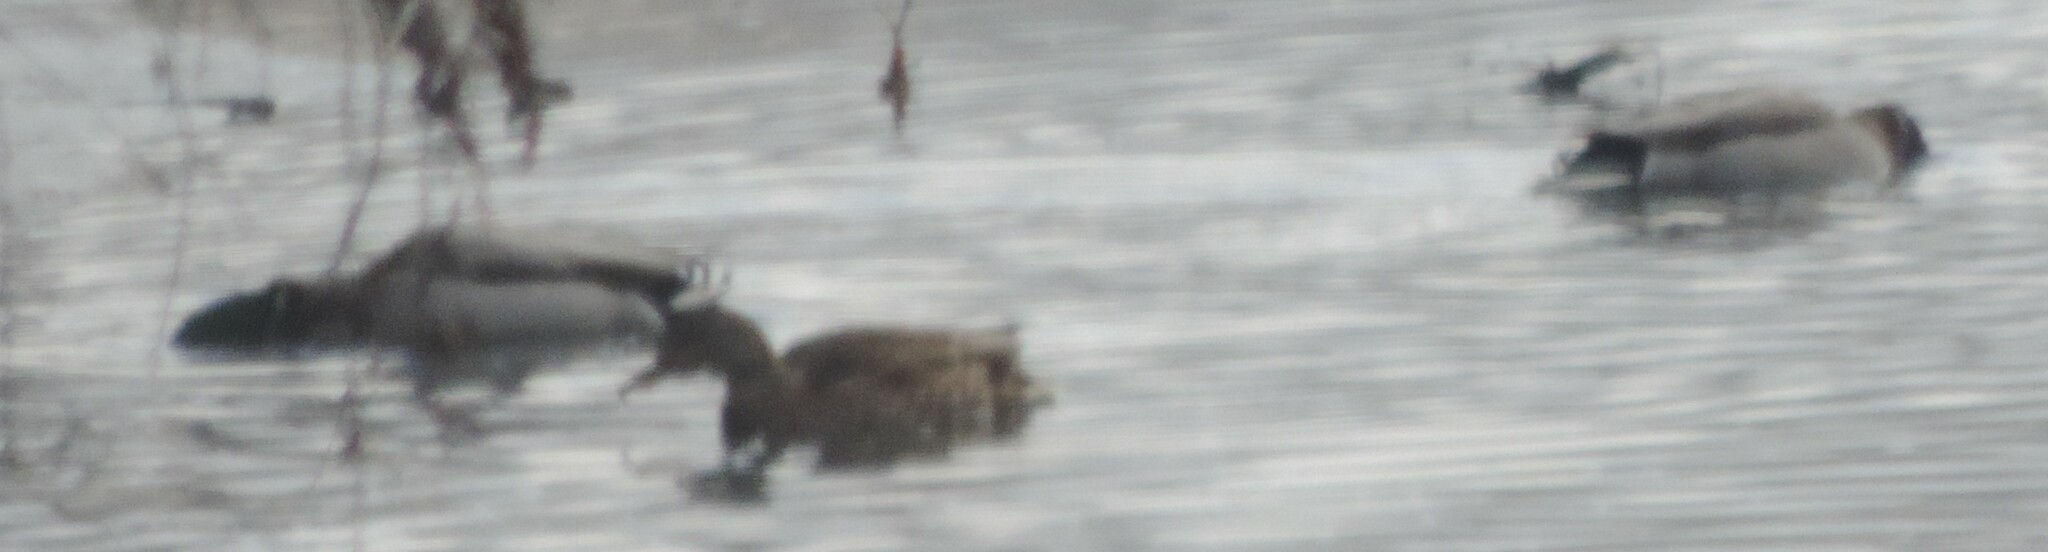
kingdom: Animalia
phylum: Chordata
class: Aves
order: Anseriformes
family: Anatidae
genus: Anas
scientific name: Anas platyrhynchos
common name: Mallard
